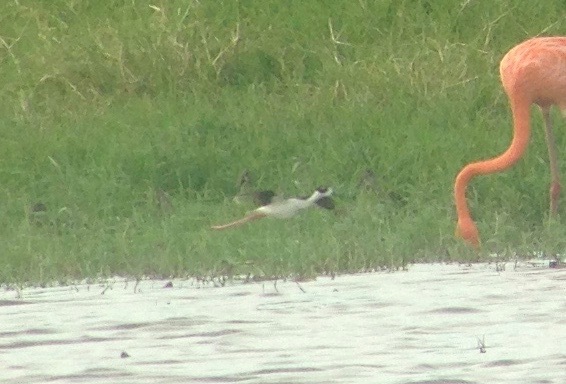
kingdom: Animalia
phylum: Chordata
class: Aves
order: Charadriiformes
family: Recurvirostridae
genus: Himantopus
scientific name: Himantopus mexicanus
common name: Black-necked stilt
